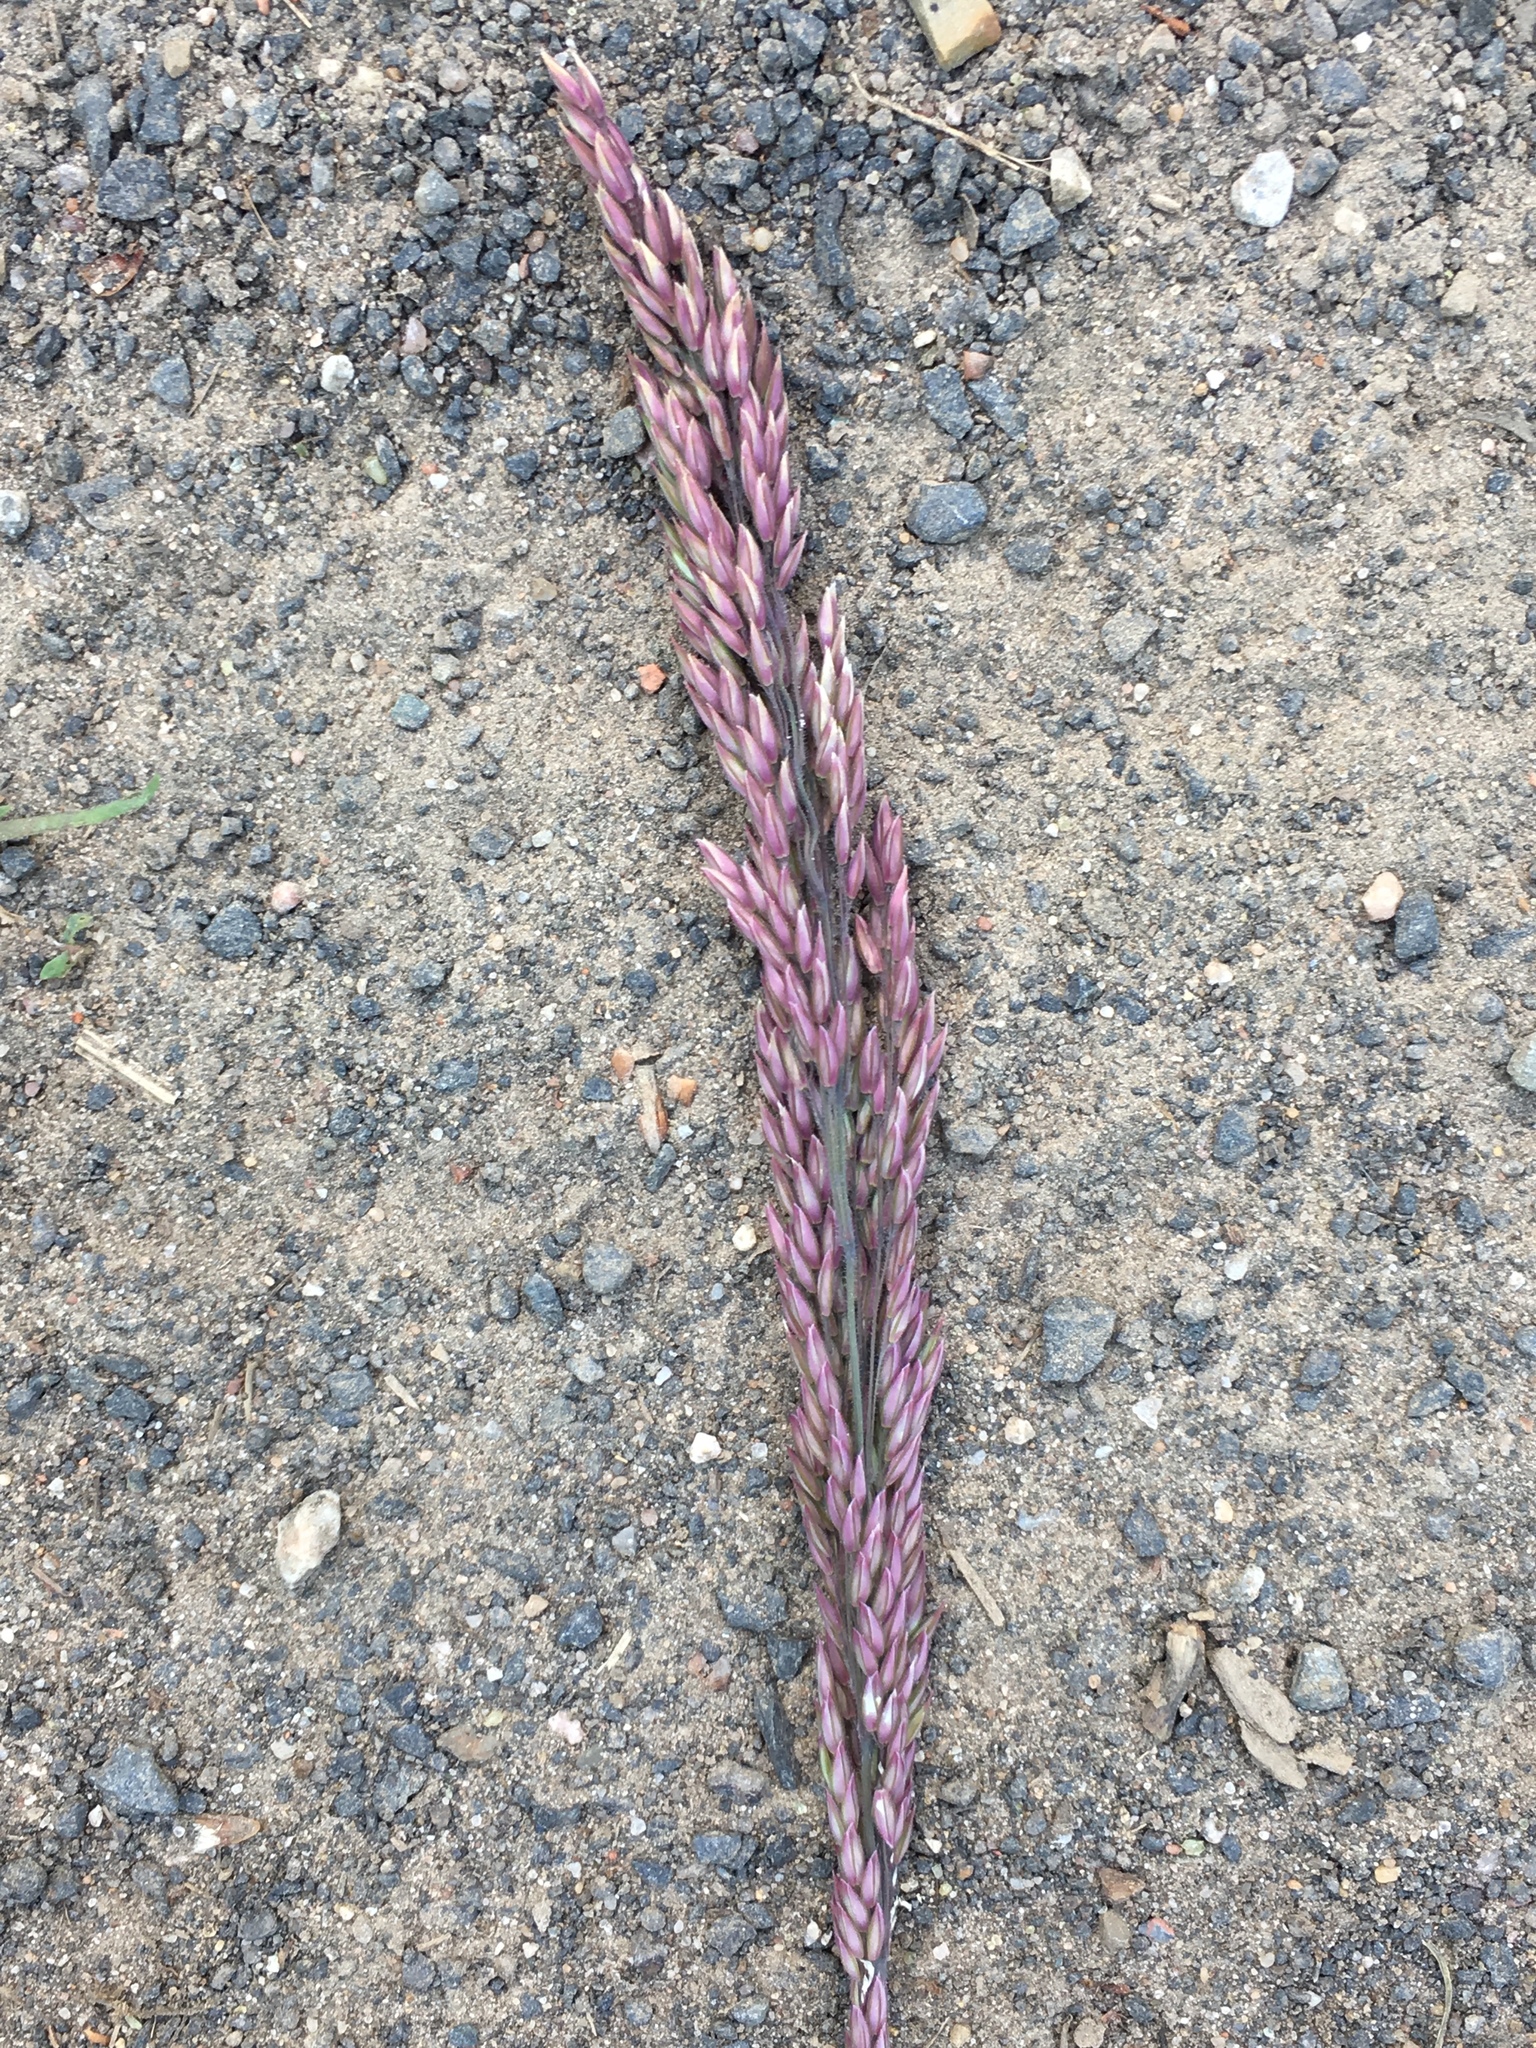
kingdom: Plantae
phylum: Tracheophyta
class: Liliopsida
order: Poales
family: Poaceae
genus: Holcus
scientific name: Holcus lanatus
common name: Yorkshire-fog
